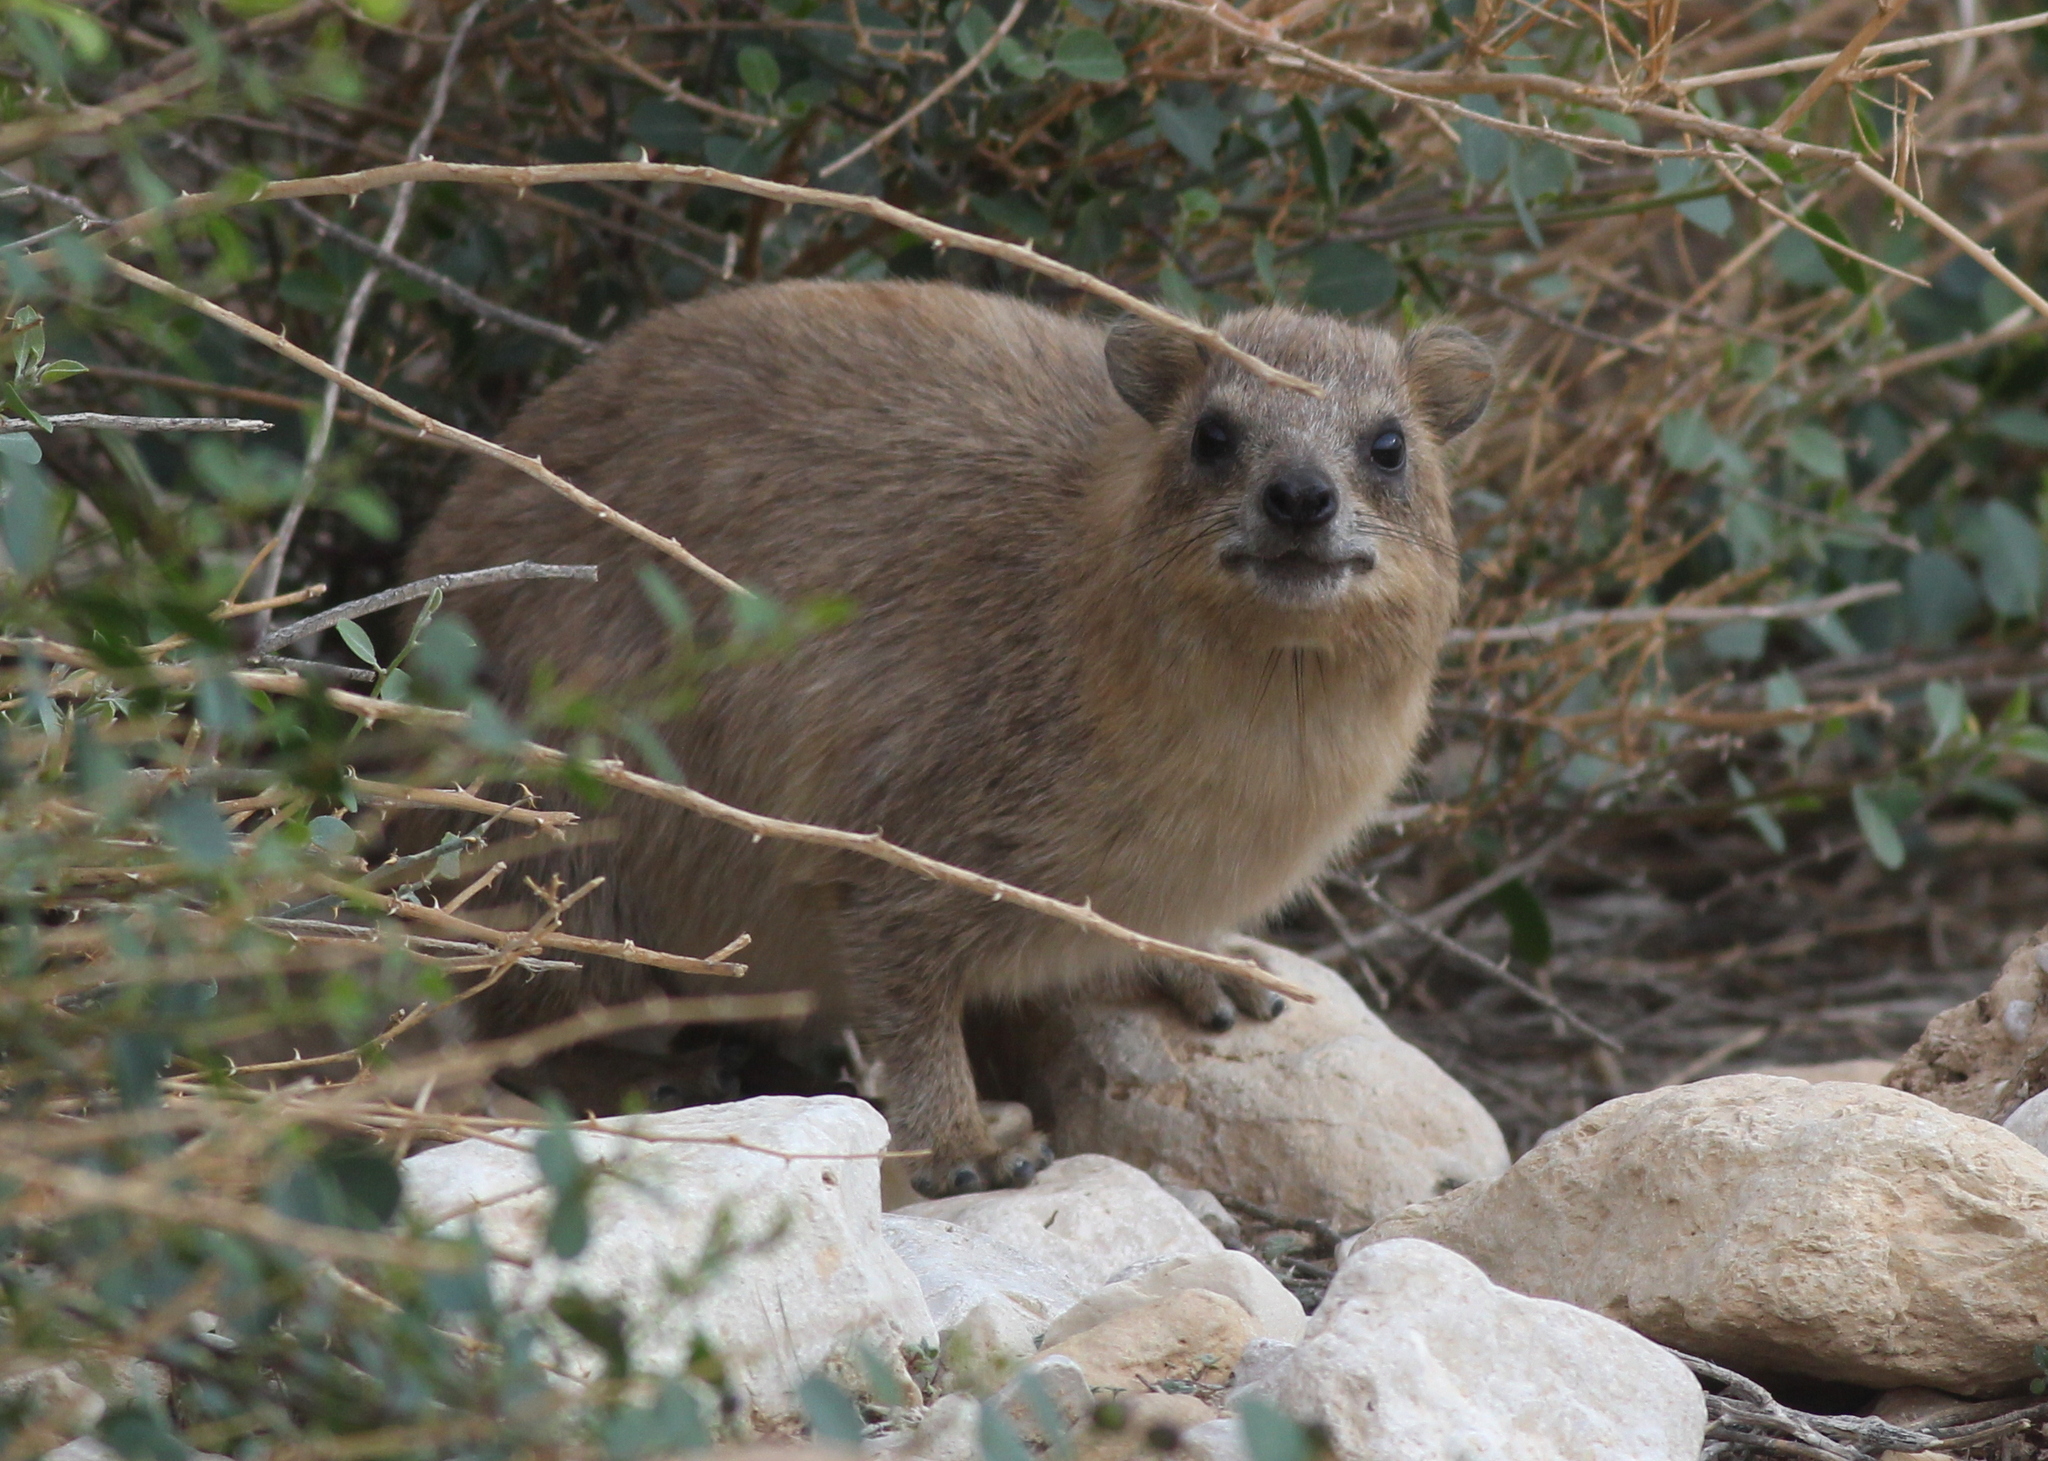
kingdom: Animalia
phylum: Chordata
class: Mammalia
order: Hyracoidea
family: Procaviidae
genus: Procavia
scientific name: Procavia capensis
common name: Rock hyrax
